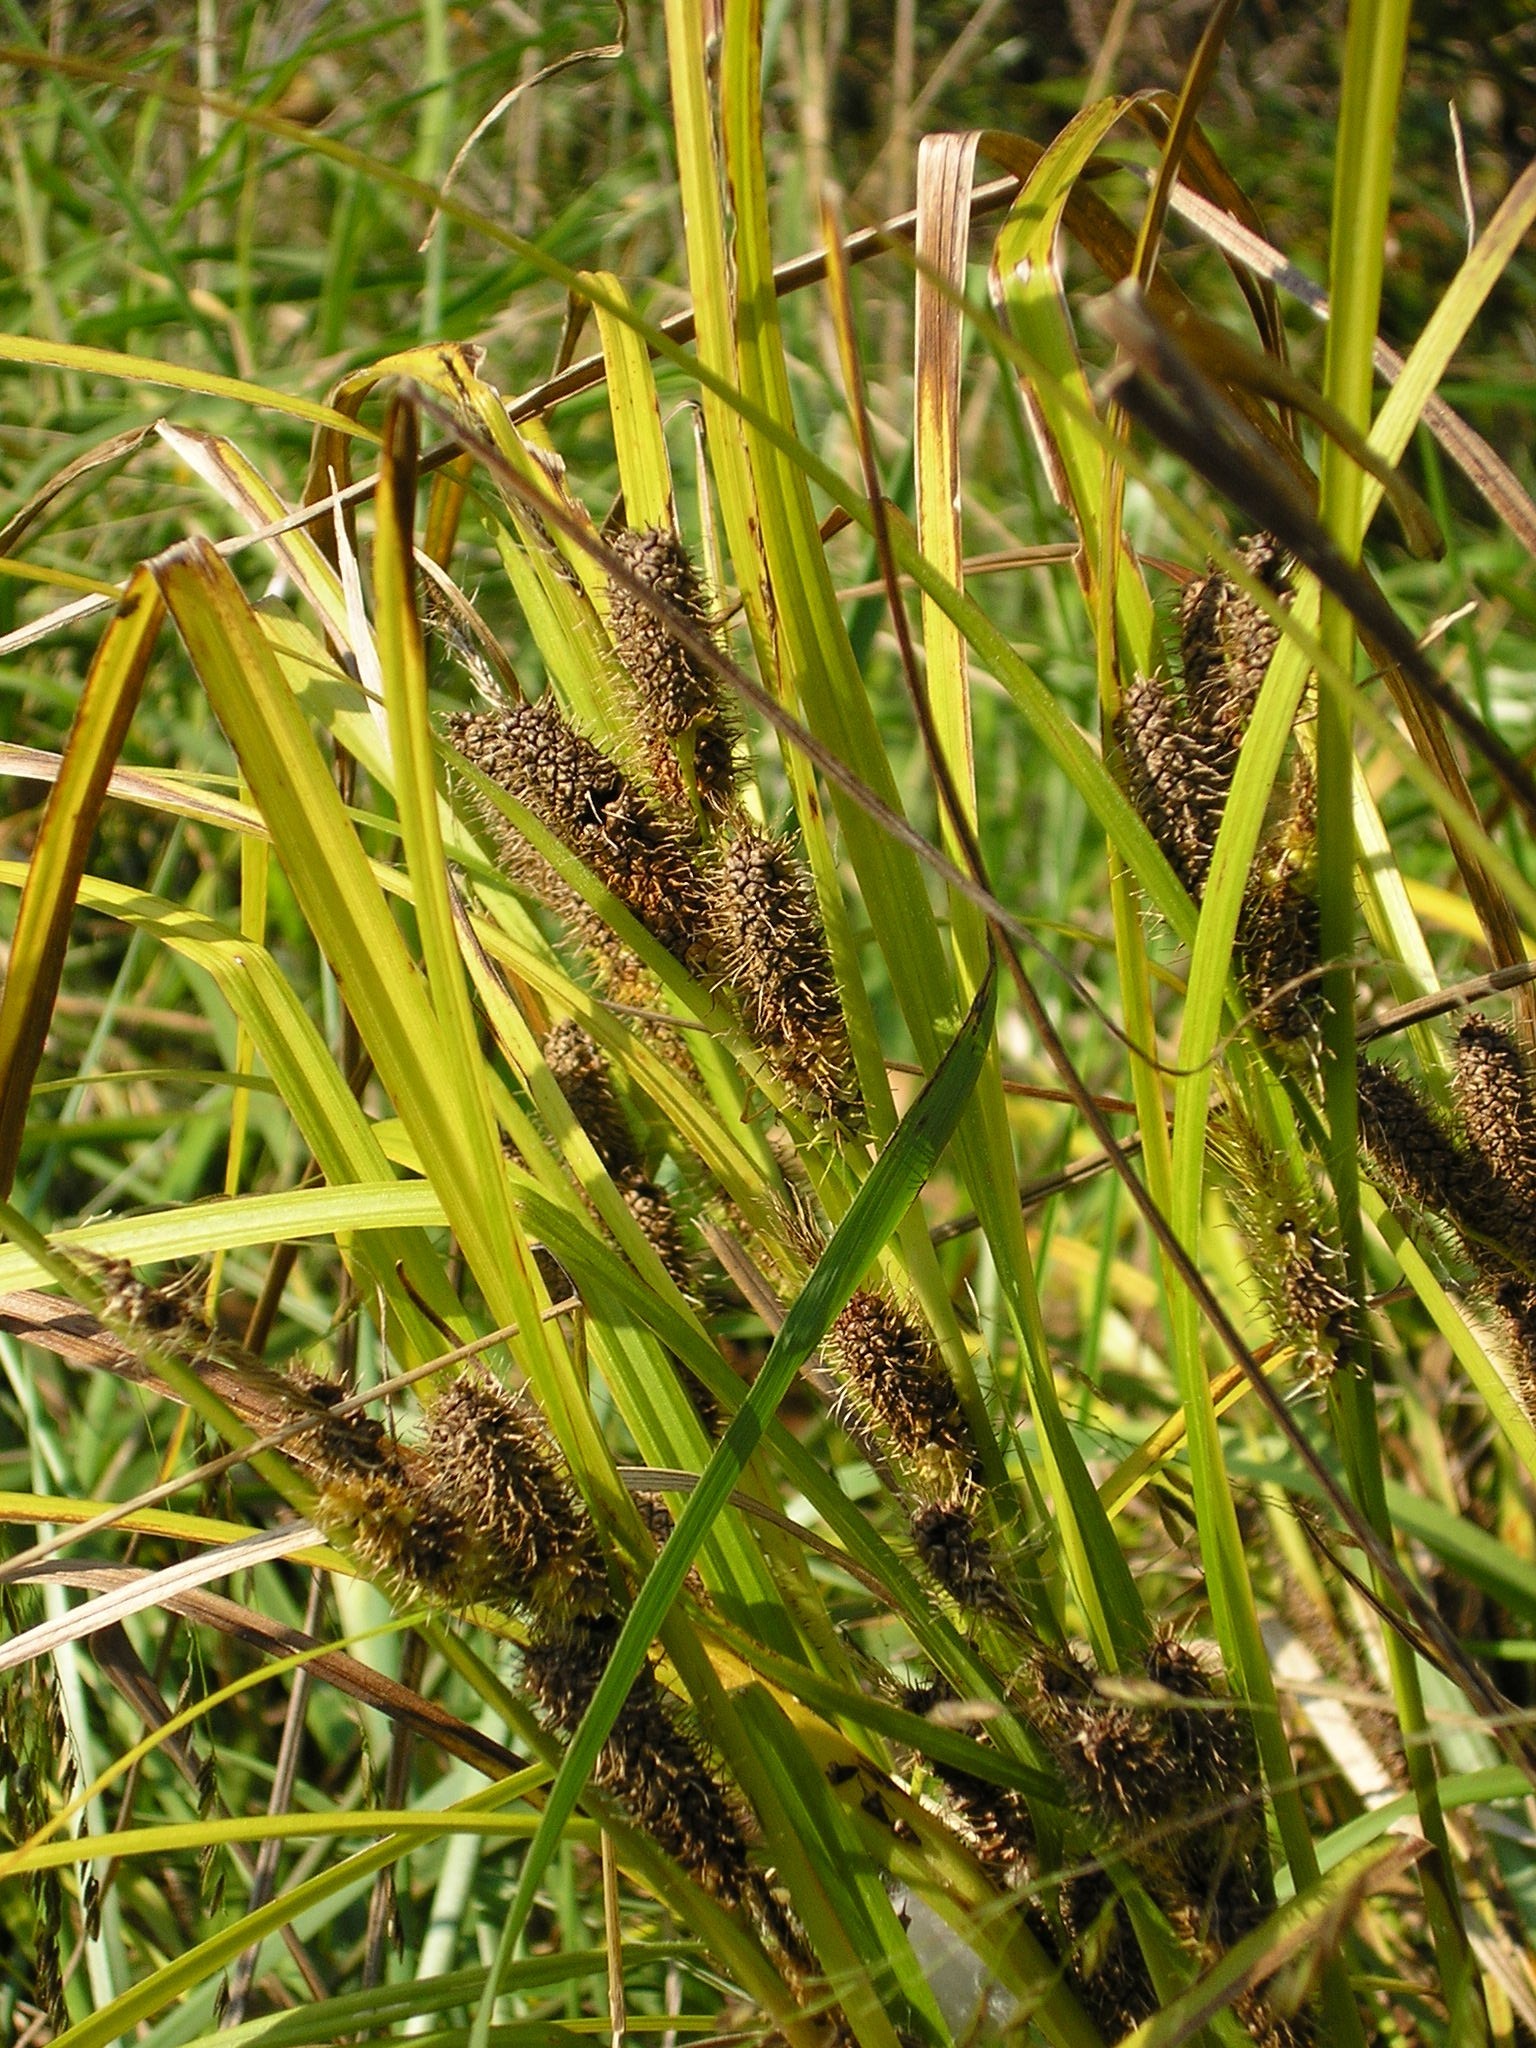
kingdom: Plantae
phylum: Tracheophyta
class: Liliopsida
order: Poales
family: Cyperaceae
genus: Carex
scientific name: Carex frankii
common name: Frank's sedge
